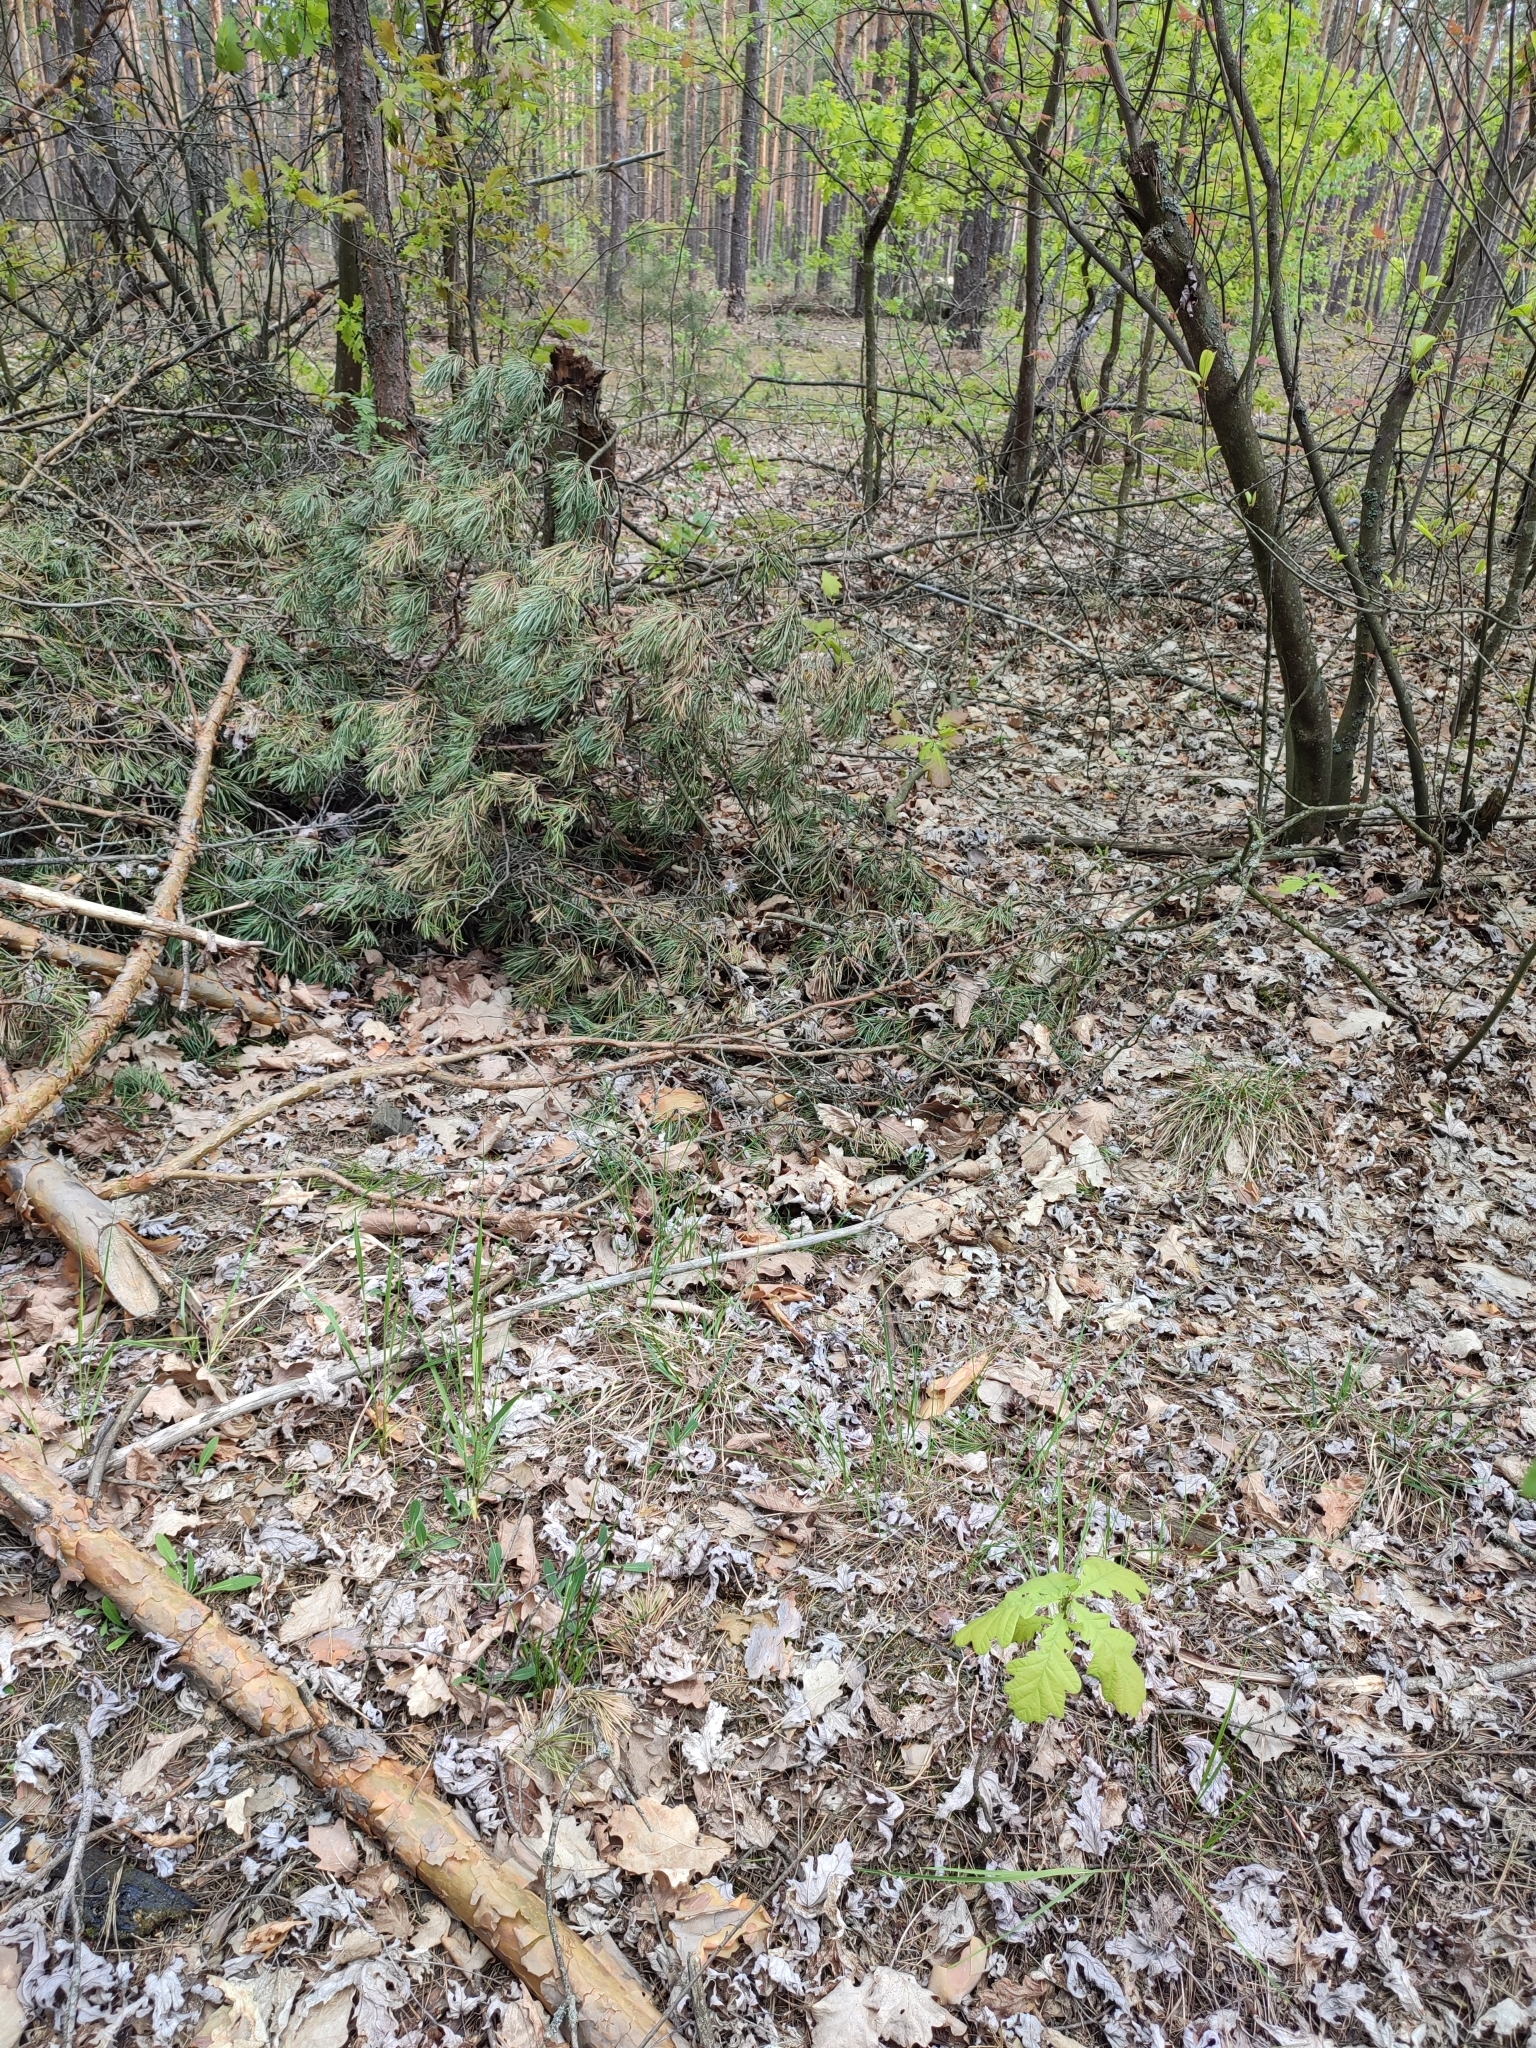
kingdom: Plantae
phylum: Tracheophyta
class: Magnoliopsida
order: Fagales
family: Fagaceae
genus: Quercus
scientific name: Quercus robur
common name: Pedunculate oak
